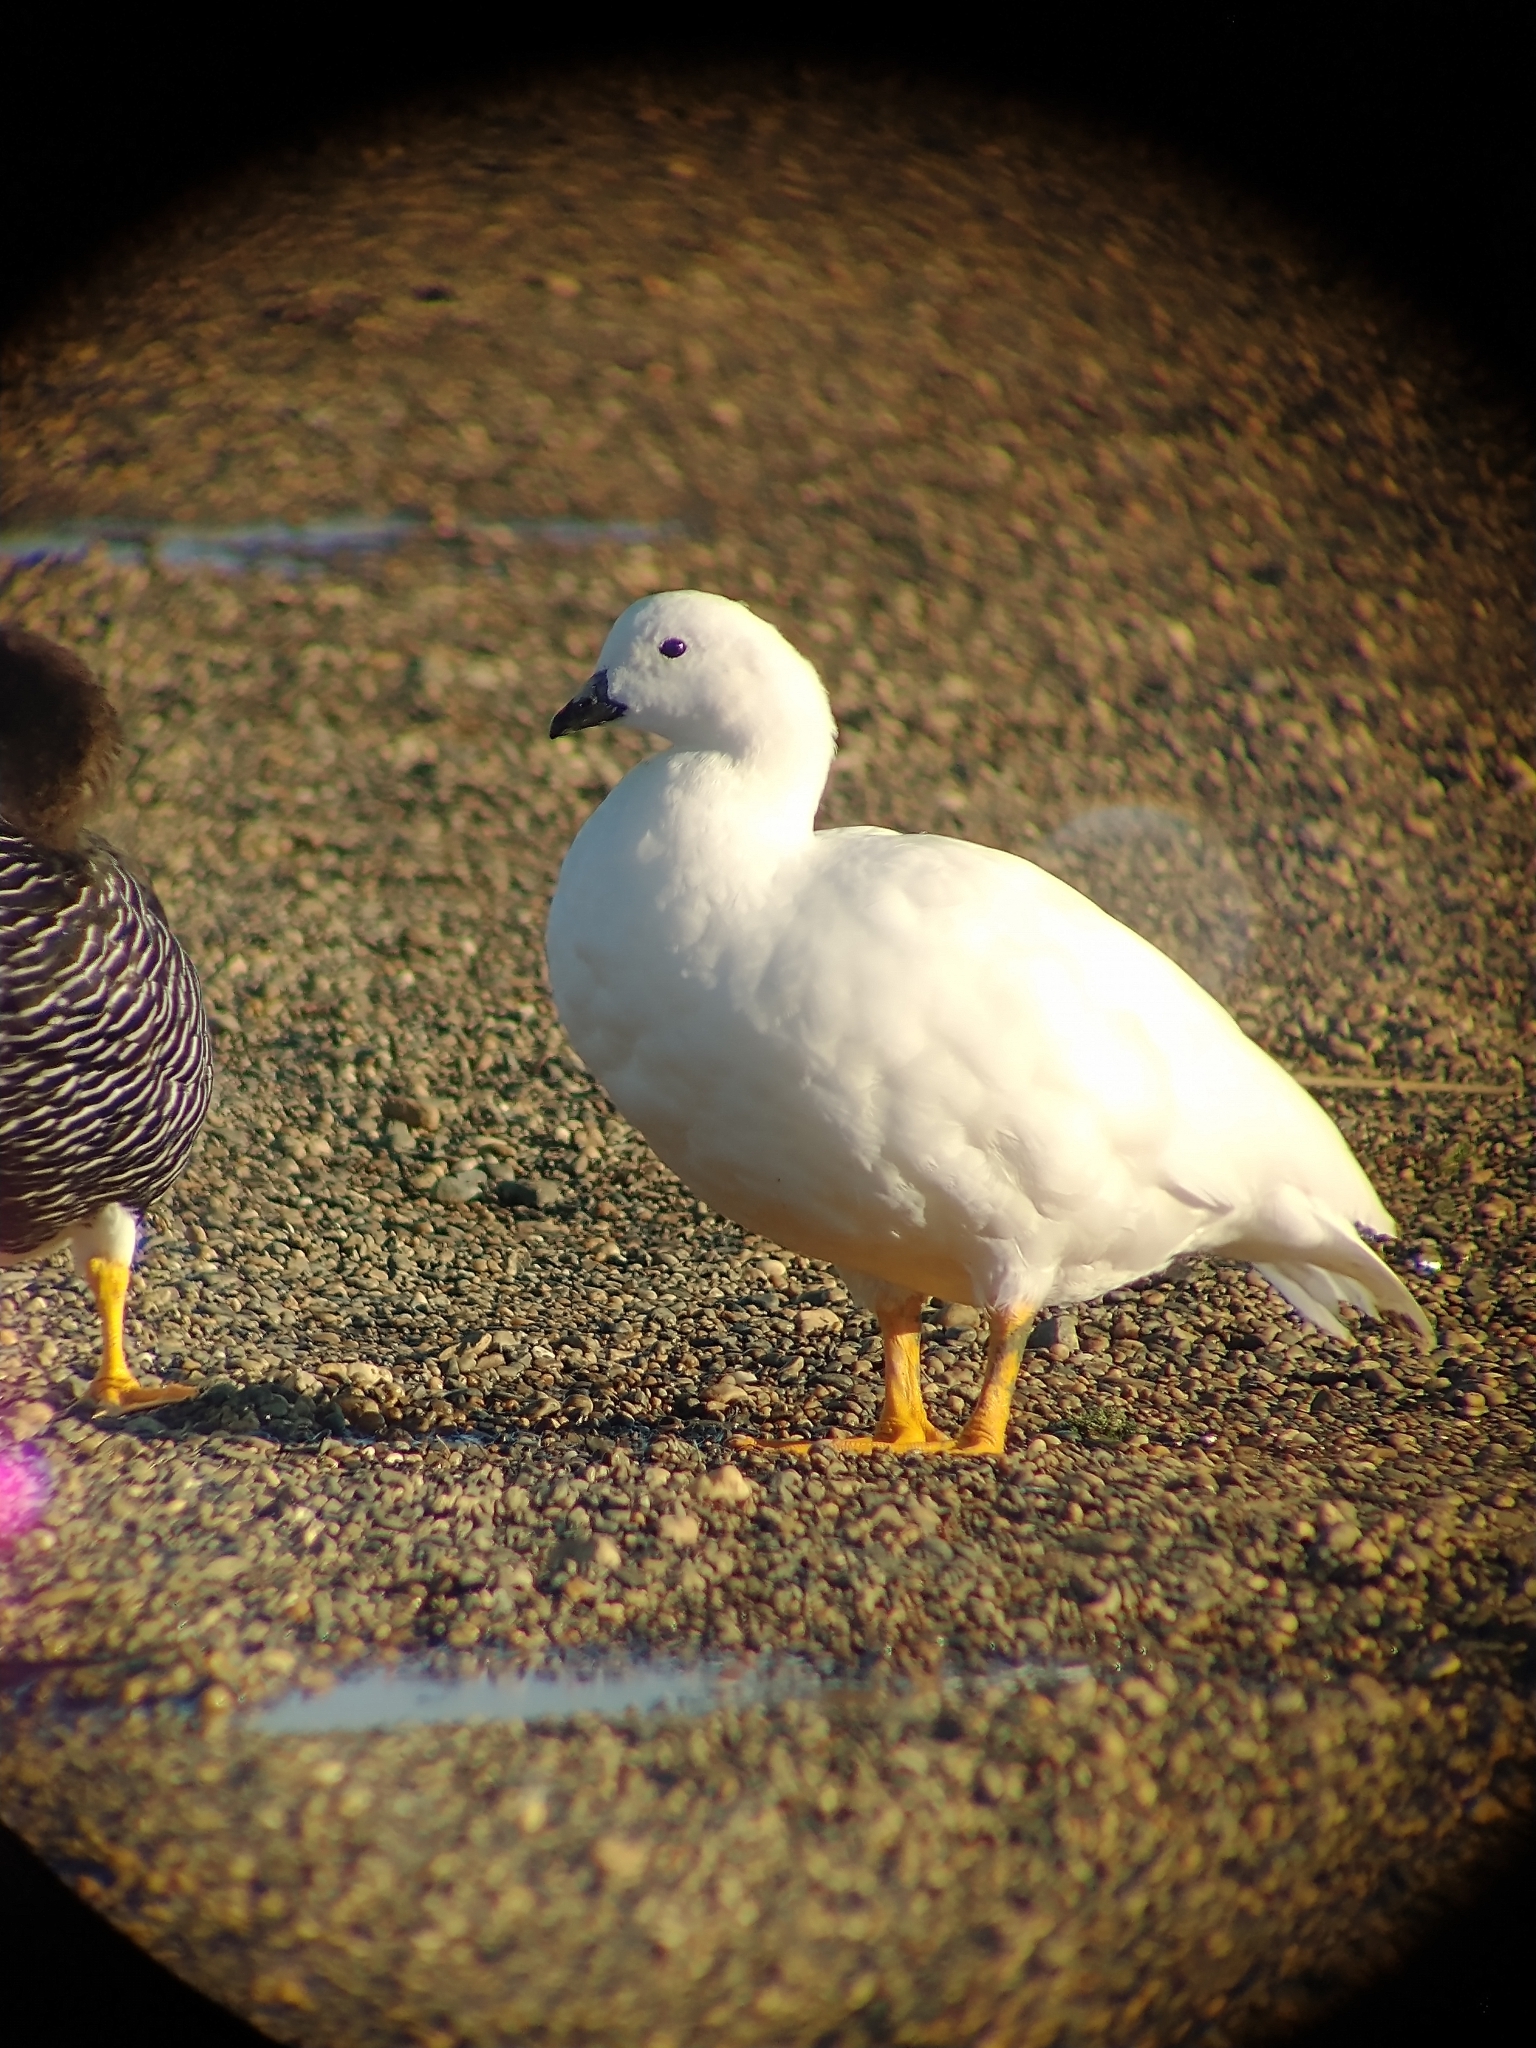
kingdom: Animalia
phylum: Chordata
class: Aves
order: Anseriformes
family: Anatidae
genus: Chloephaga
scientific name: Chloephaga hybrida
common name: Kelp goose
